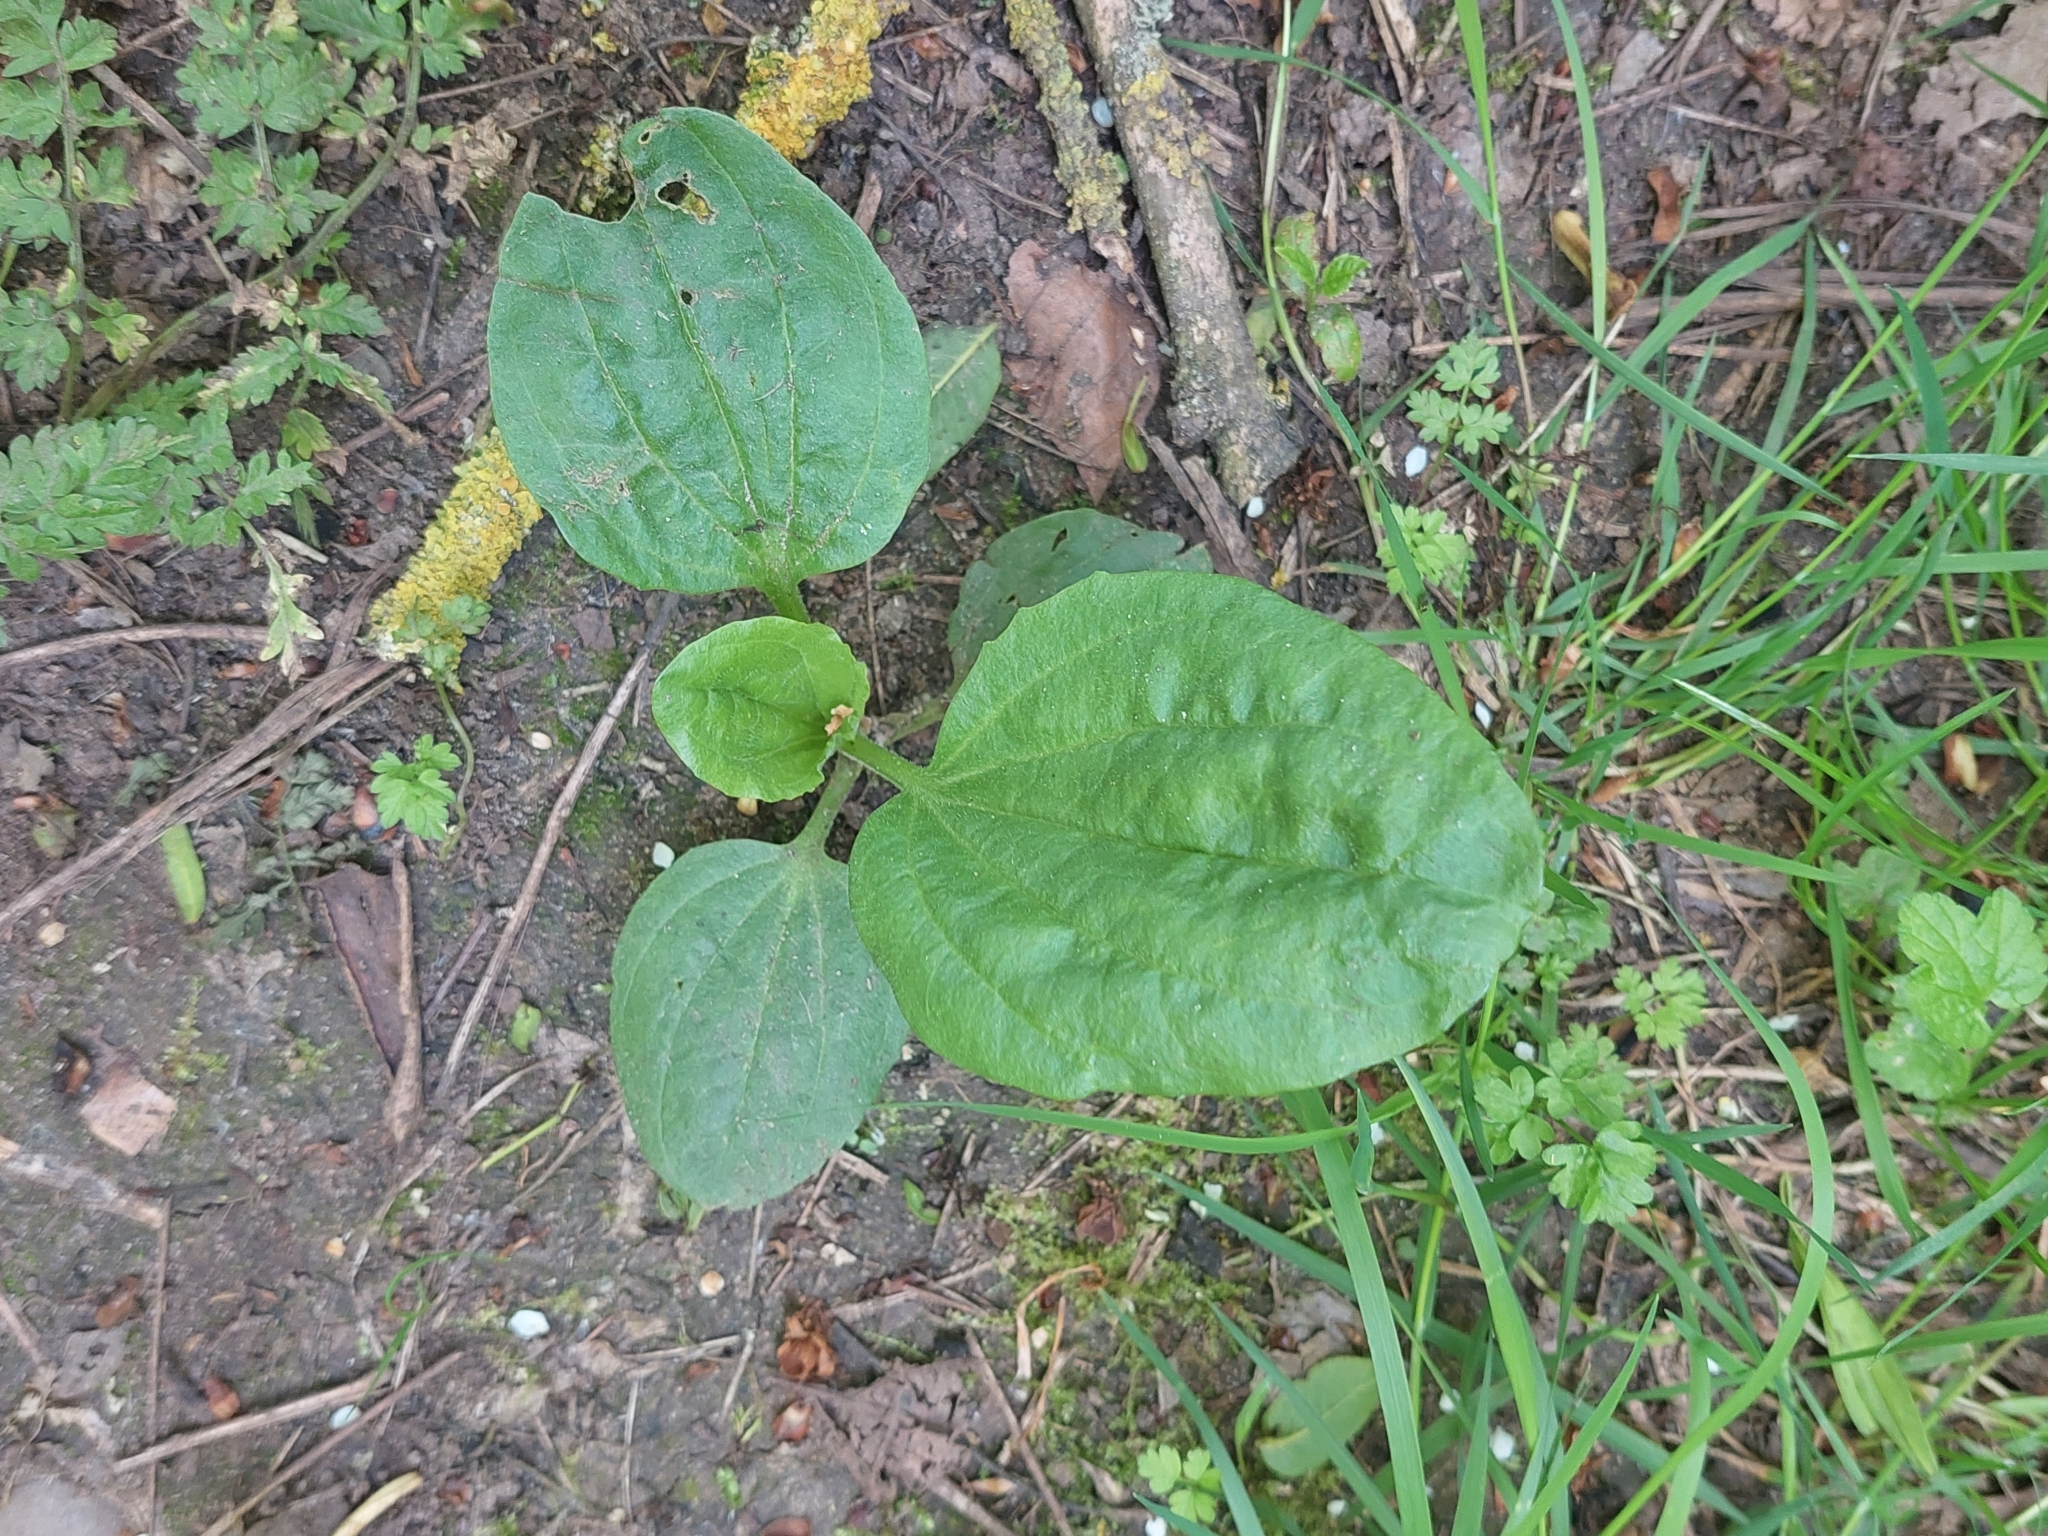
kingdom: Plantae
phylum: Tracheophyta
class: Magnoliopsida
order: Lamiales
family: Plantaginaceae
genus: Plantago
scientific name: Plantago major
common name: Common plantain
